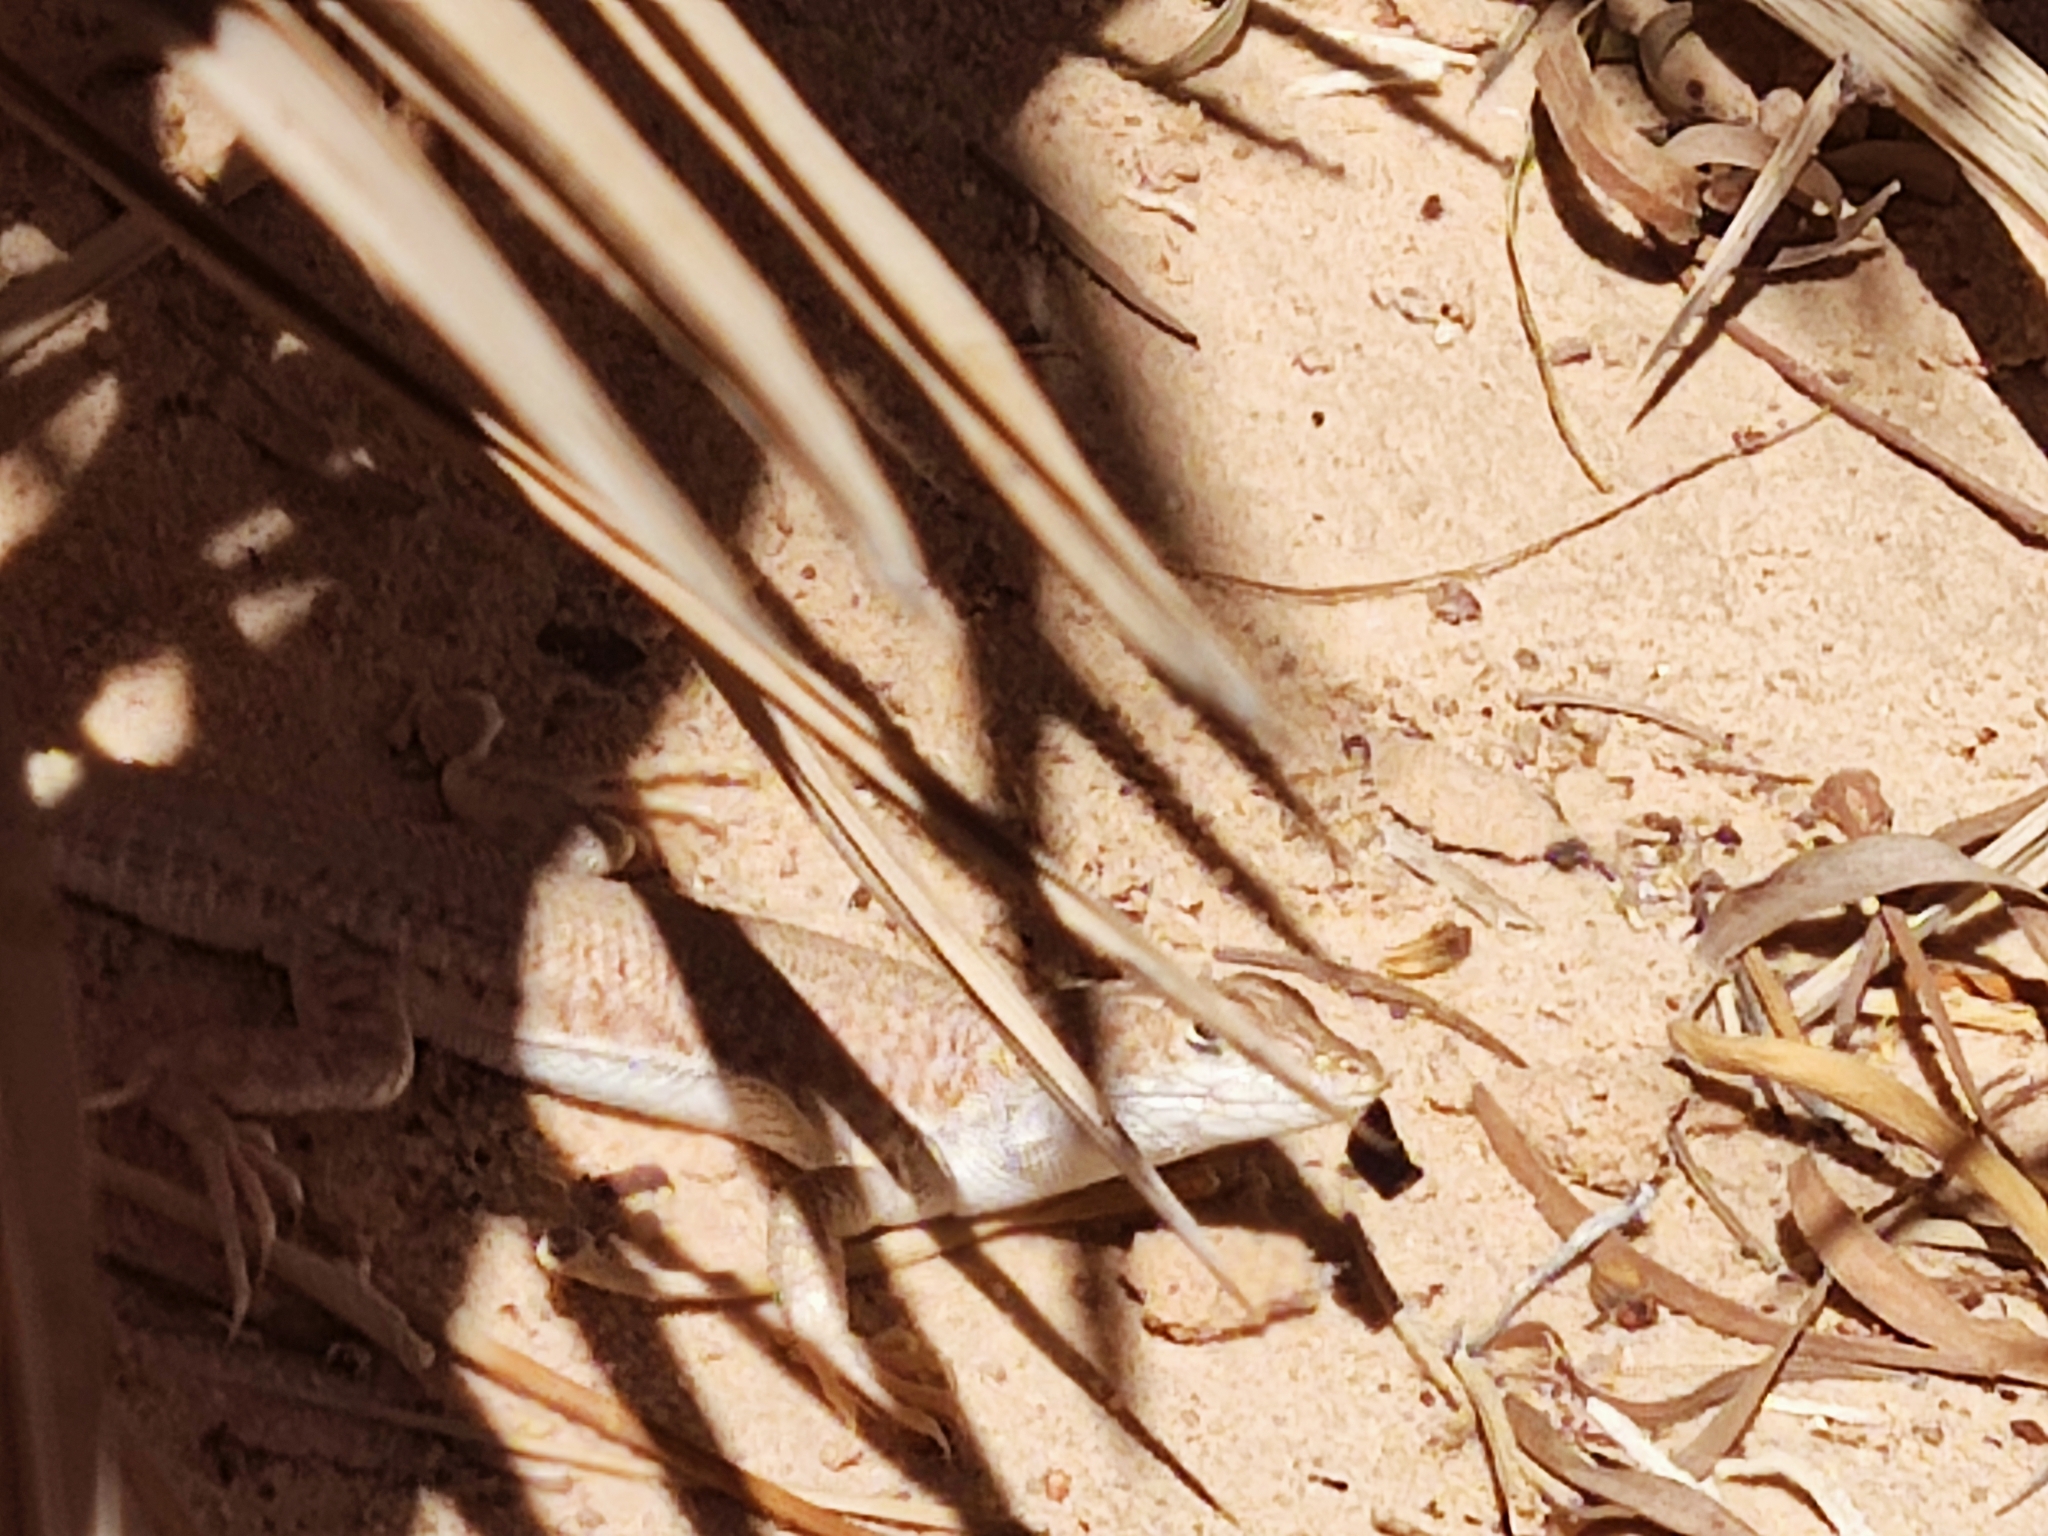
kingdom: Animalia
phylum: Chordata
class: Squamata
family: Lacertidae
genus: Acanthodactylus
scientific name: Acanthodactylus boskianus
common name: Bosc’s fringe-toed lizard
